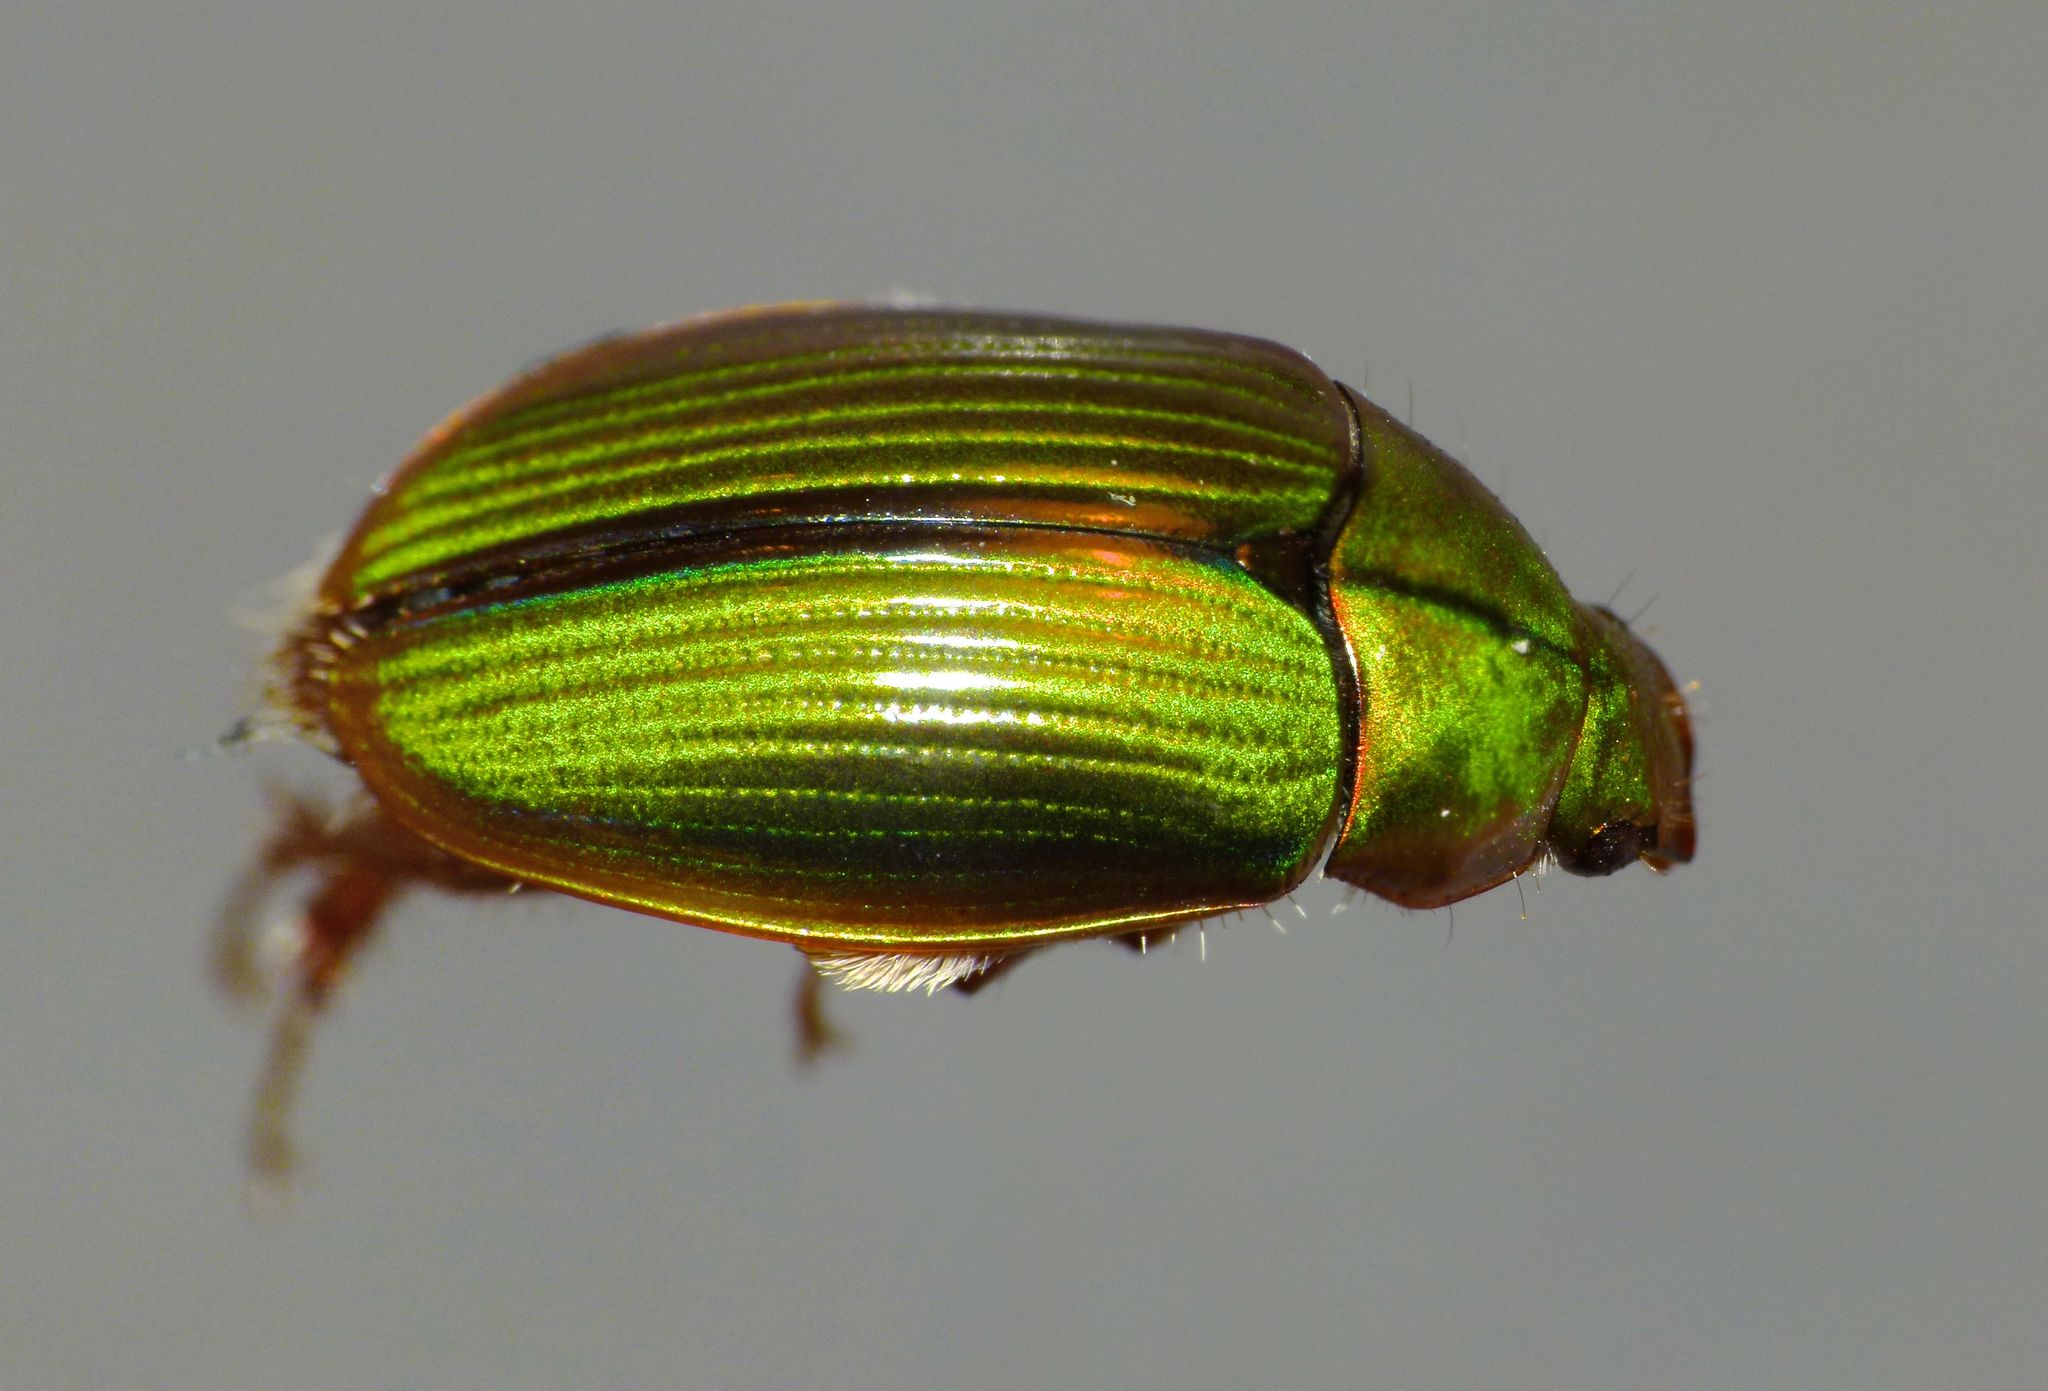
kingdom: Animalia
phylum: Arthropoda
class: Insecta
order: Coleoptera
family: Scarabaeidae
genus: Pyronota
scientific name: Pyronota festiva
